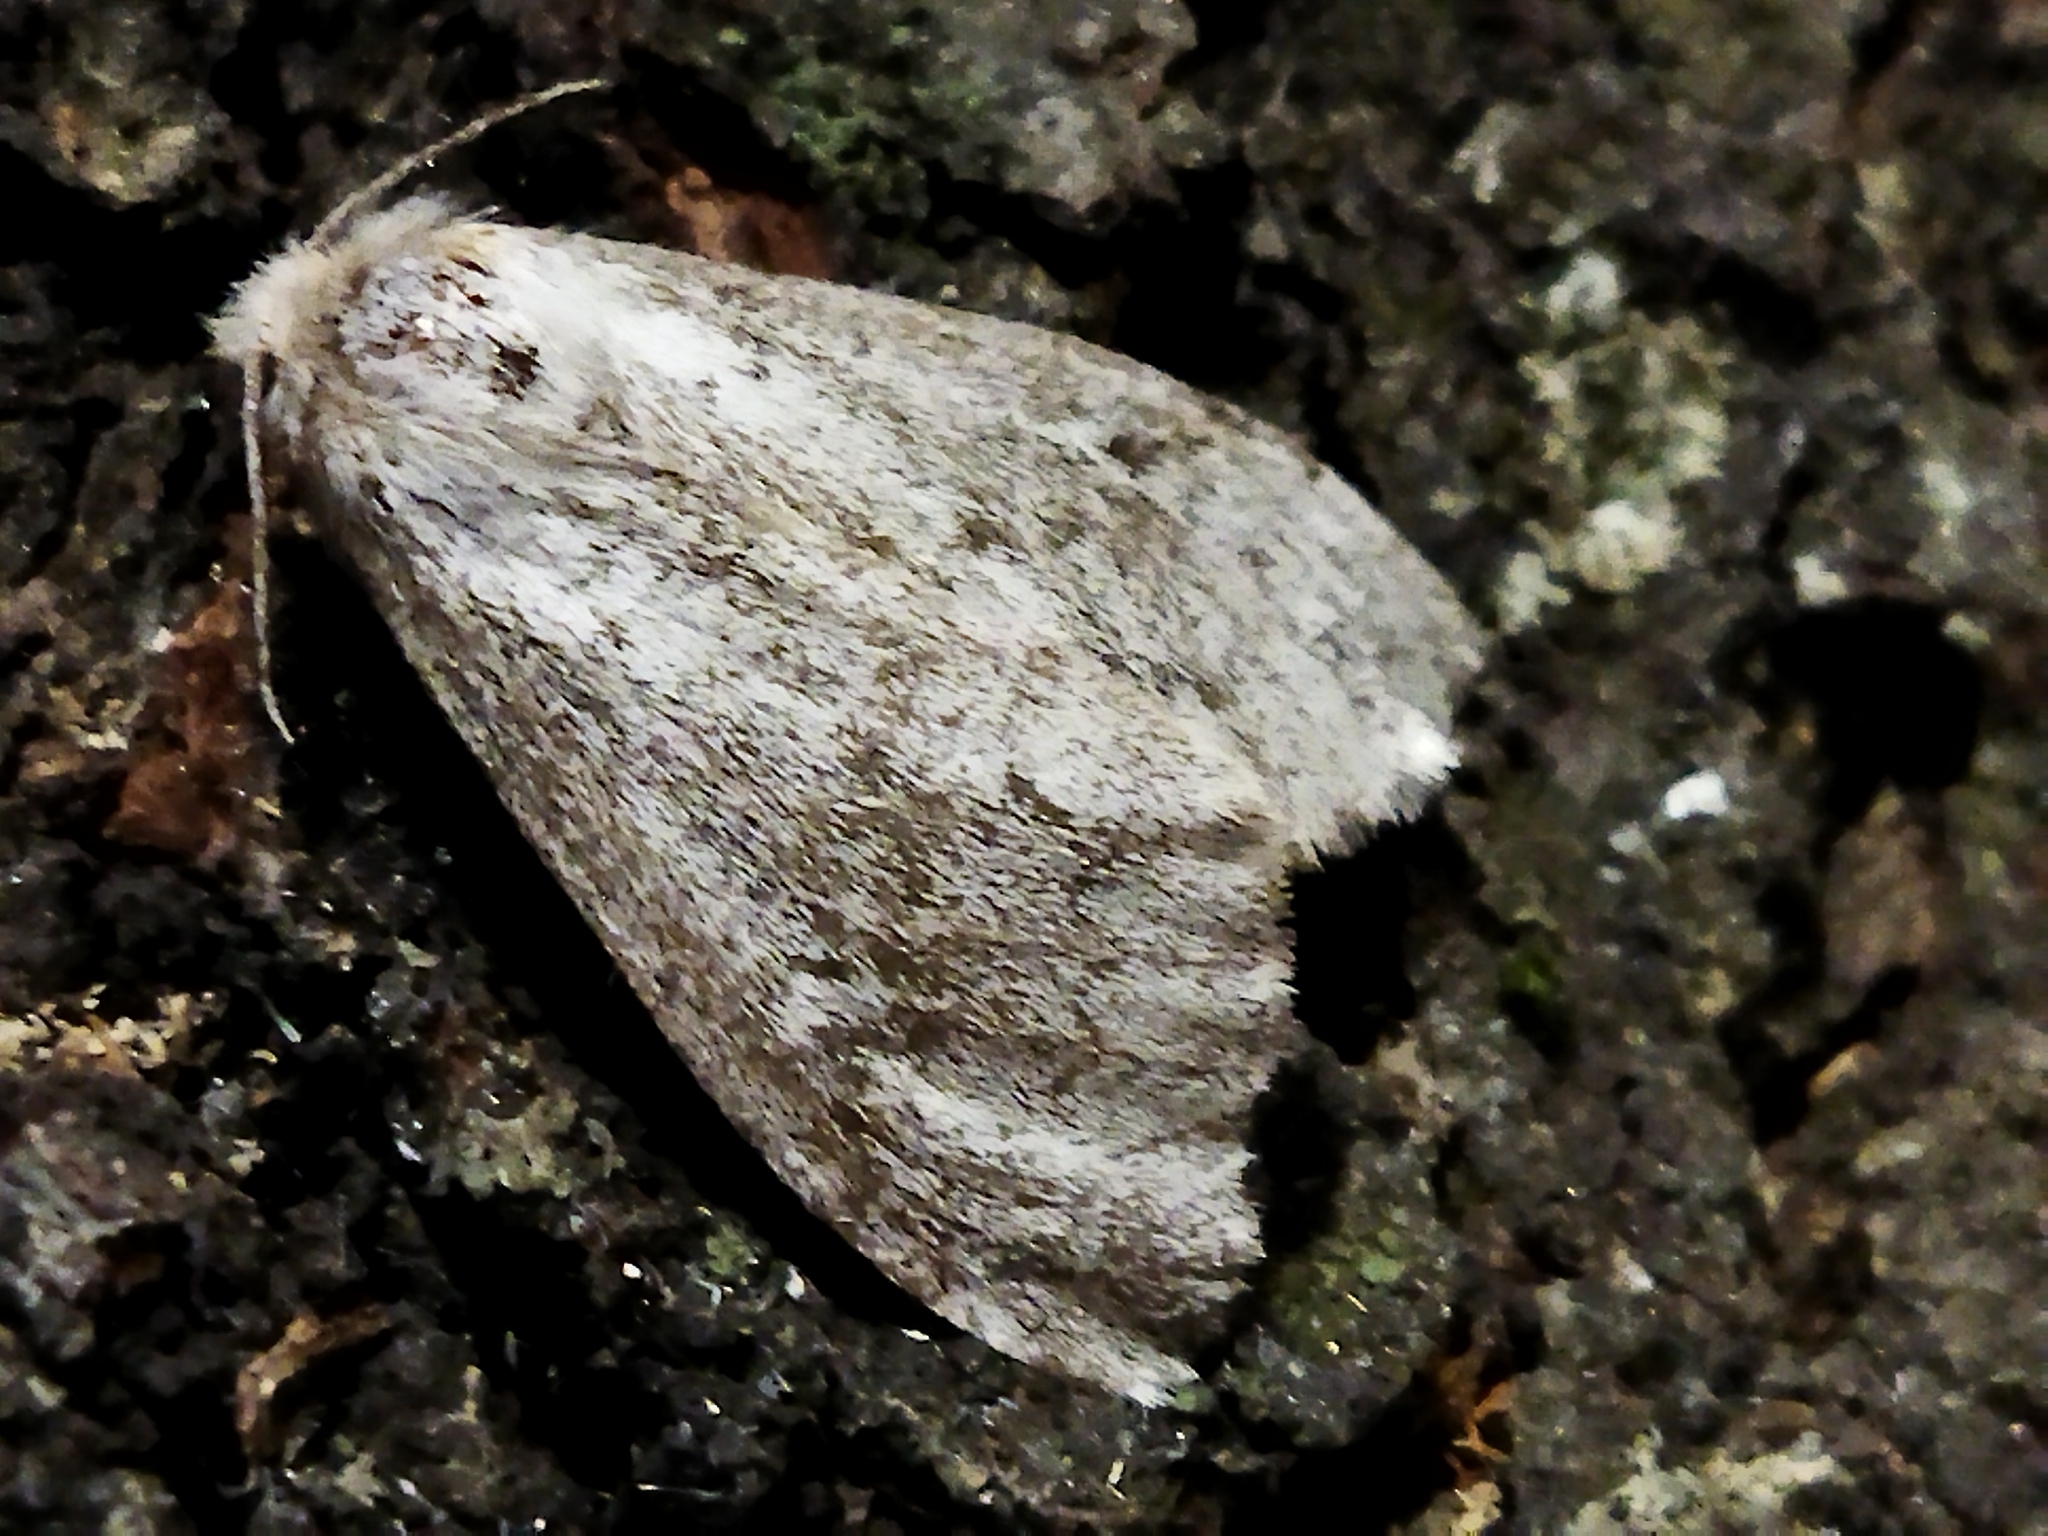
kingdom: Animalia
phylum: Arthropoda
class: Insecta
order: Lepidoptera
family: Erebidae
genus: Ocneria
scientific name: Ocneria
